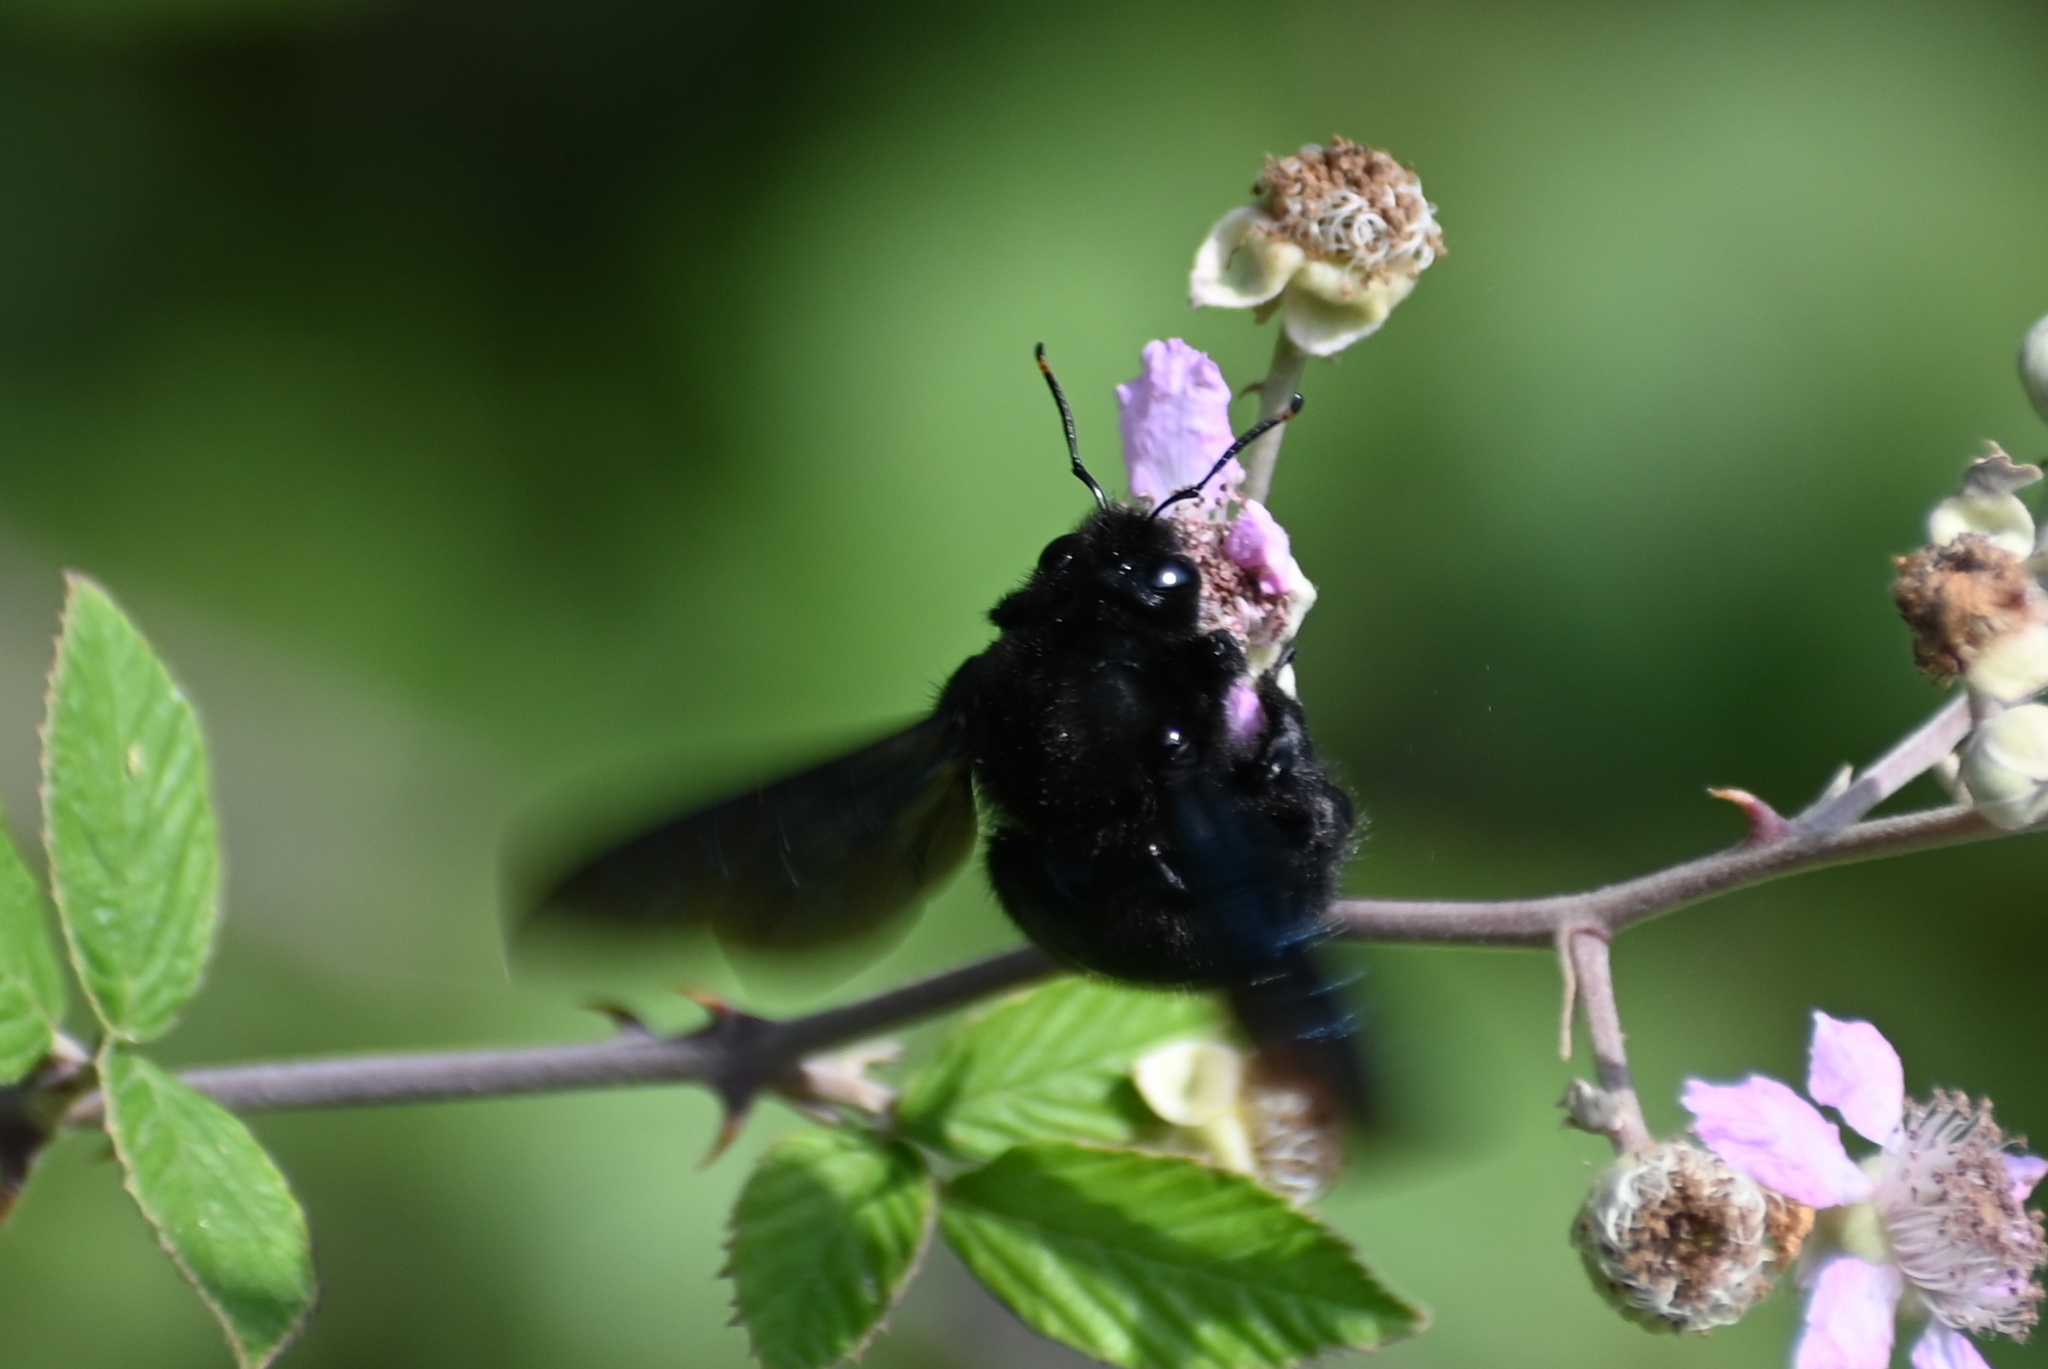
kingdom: Animalia
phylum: Arthropoda
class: Insecta
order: Hymenoptera
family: Apidae
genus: Xylocopa
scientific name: Xylocopa violacea
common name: Violet carpenter bee
